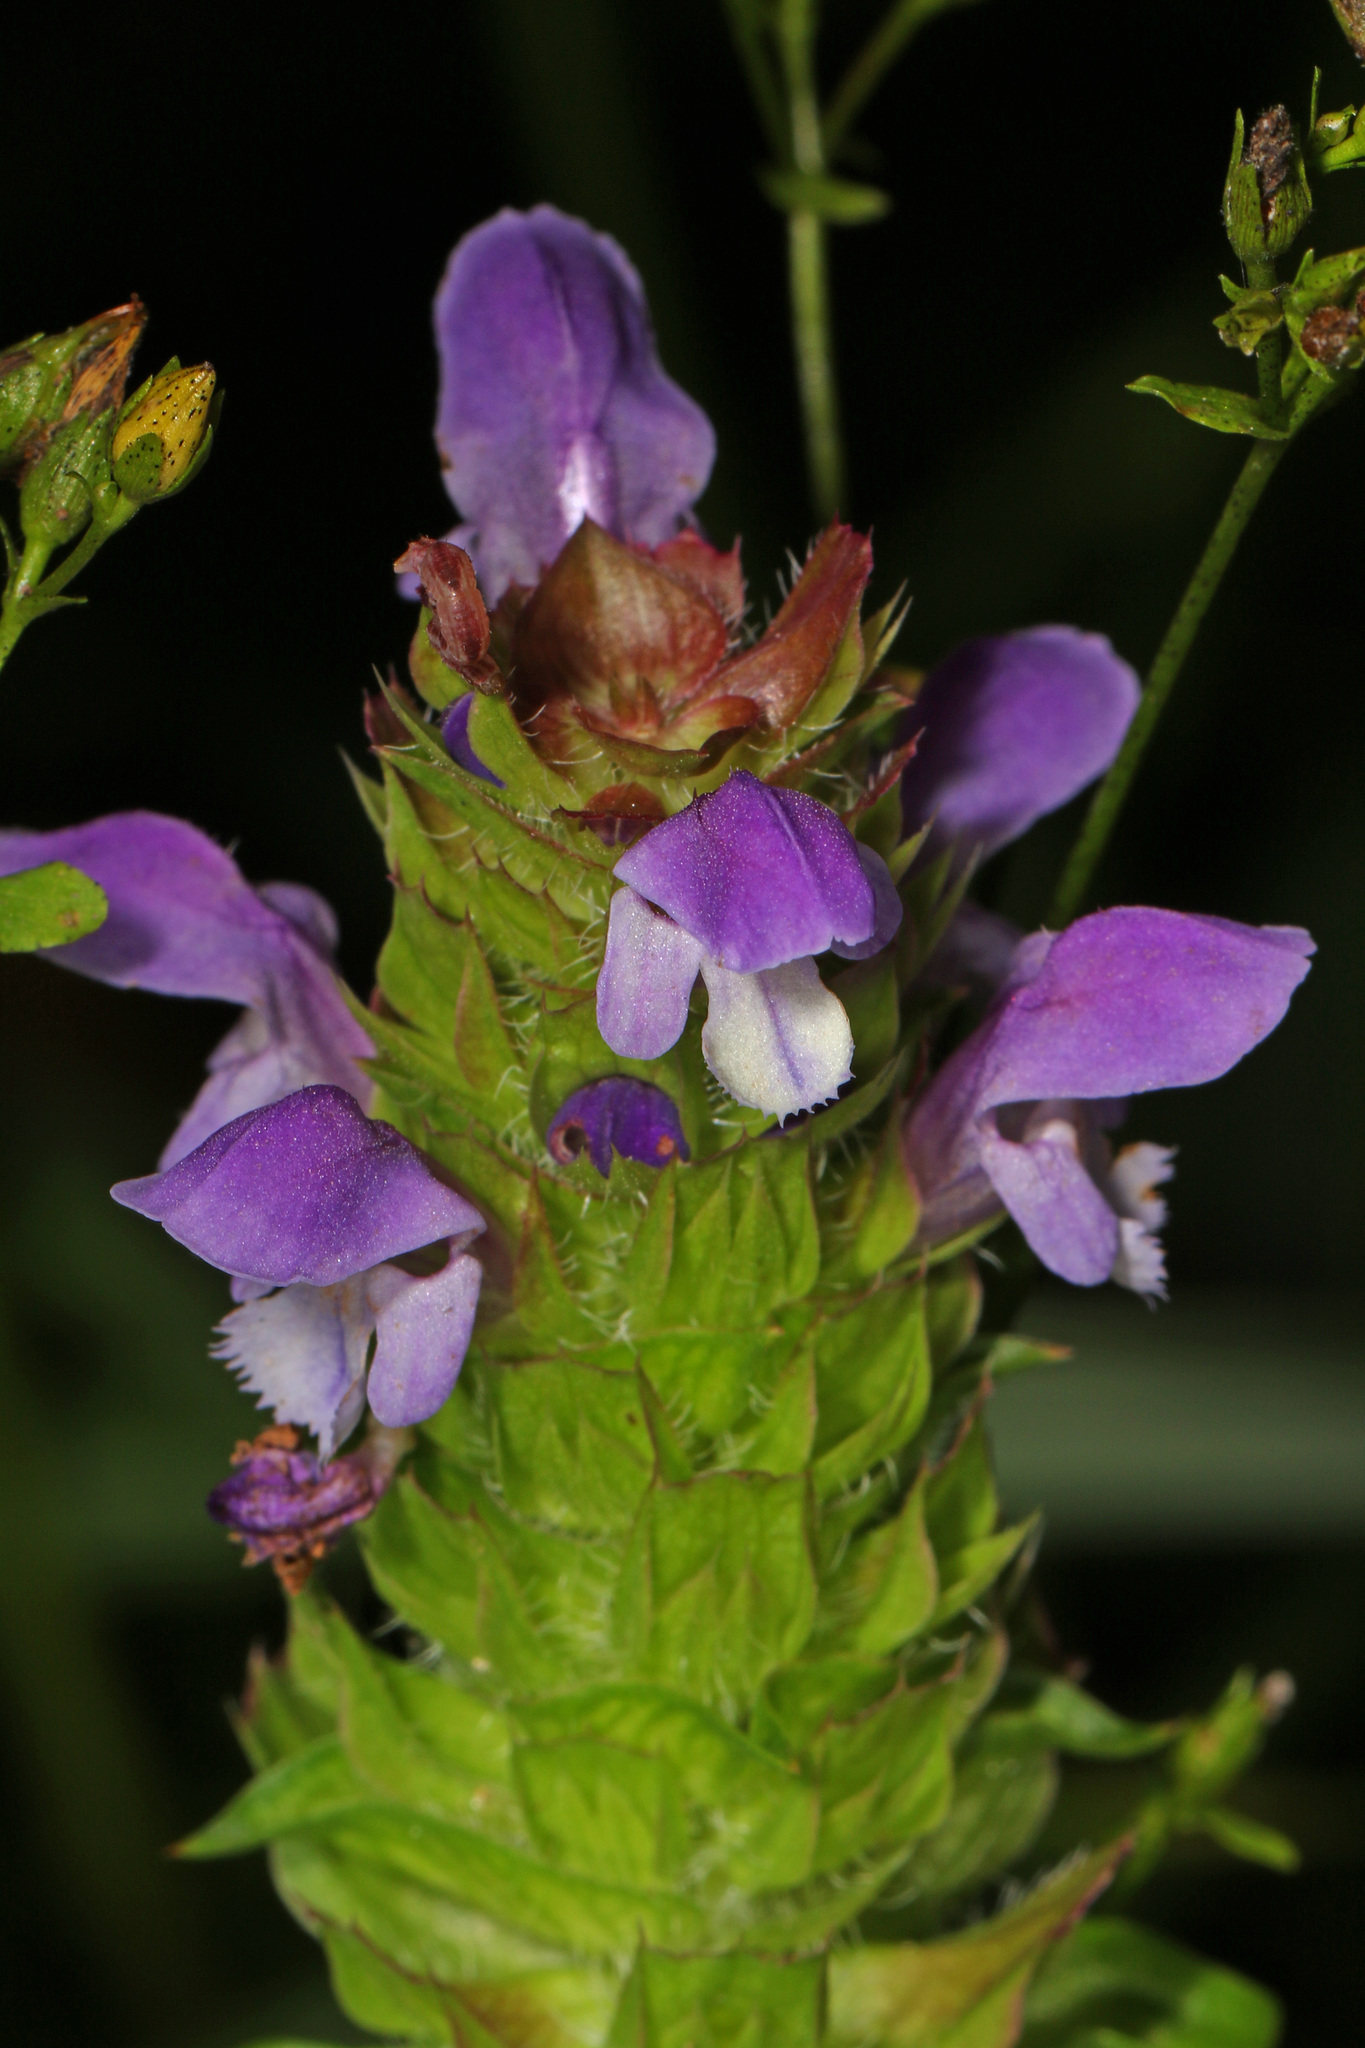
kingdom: Plantae
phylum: Tracheophyta
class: Magnoliopsida
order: Lamiales
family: Lamiaceae
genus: Prunella
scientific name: Prunella vulgaris
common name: Heal-all
